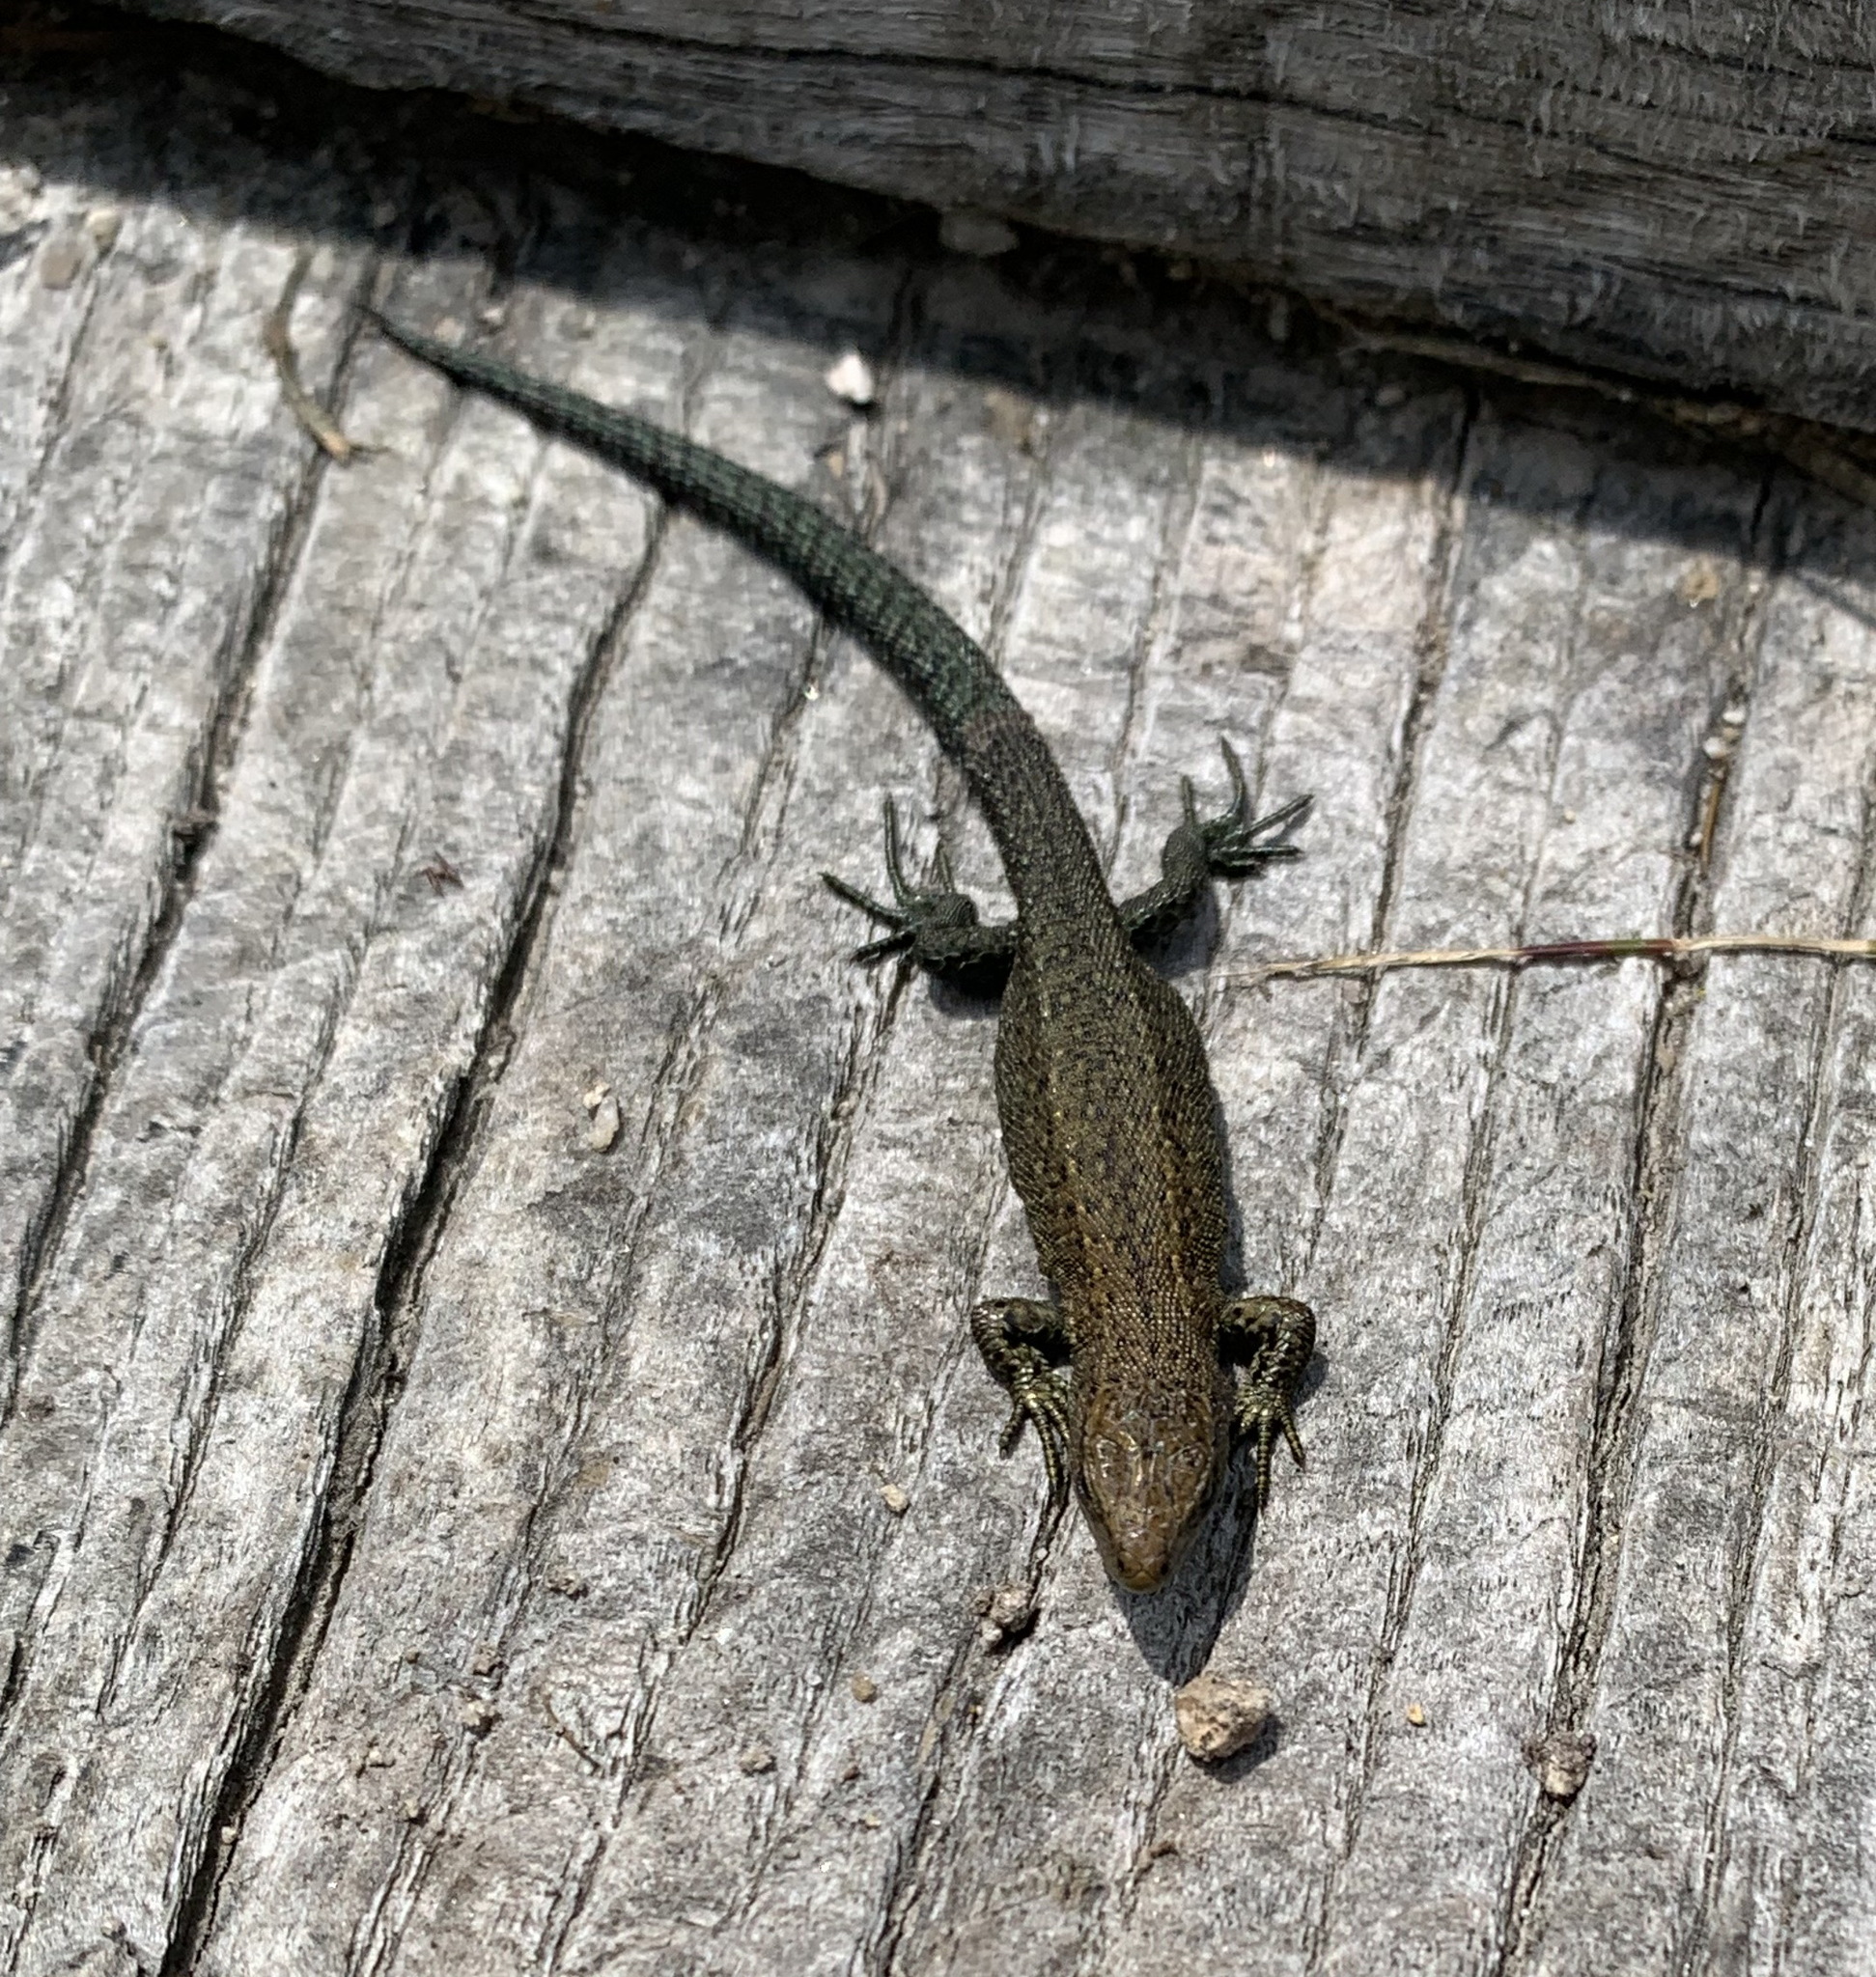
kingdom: Animalia
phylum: Chordata
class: Squamata
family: Lacertidae
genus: Zootoca
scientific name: Zootoca vivipara
